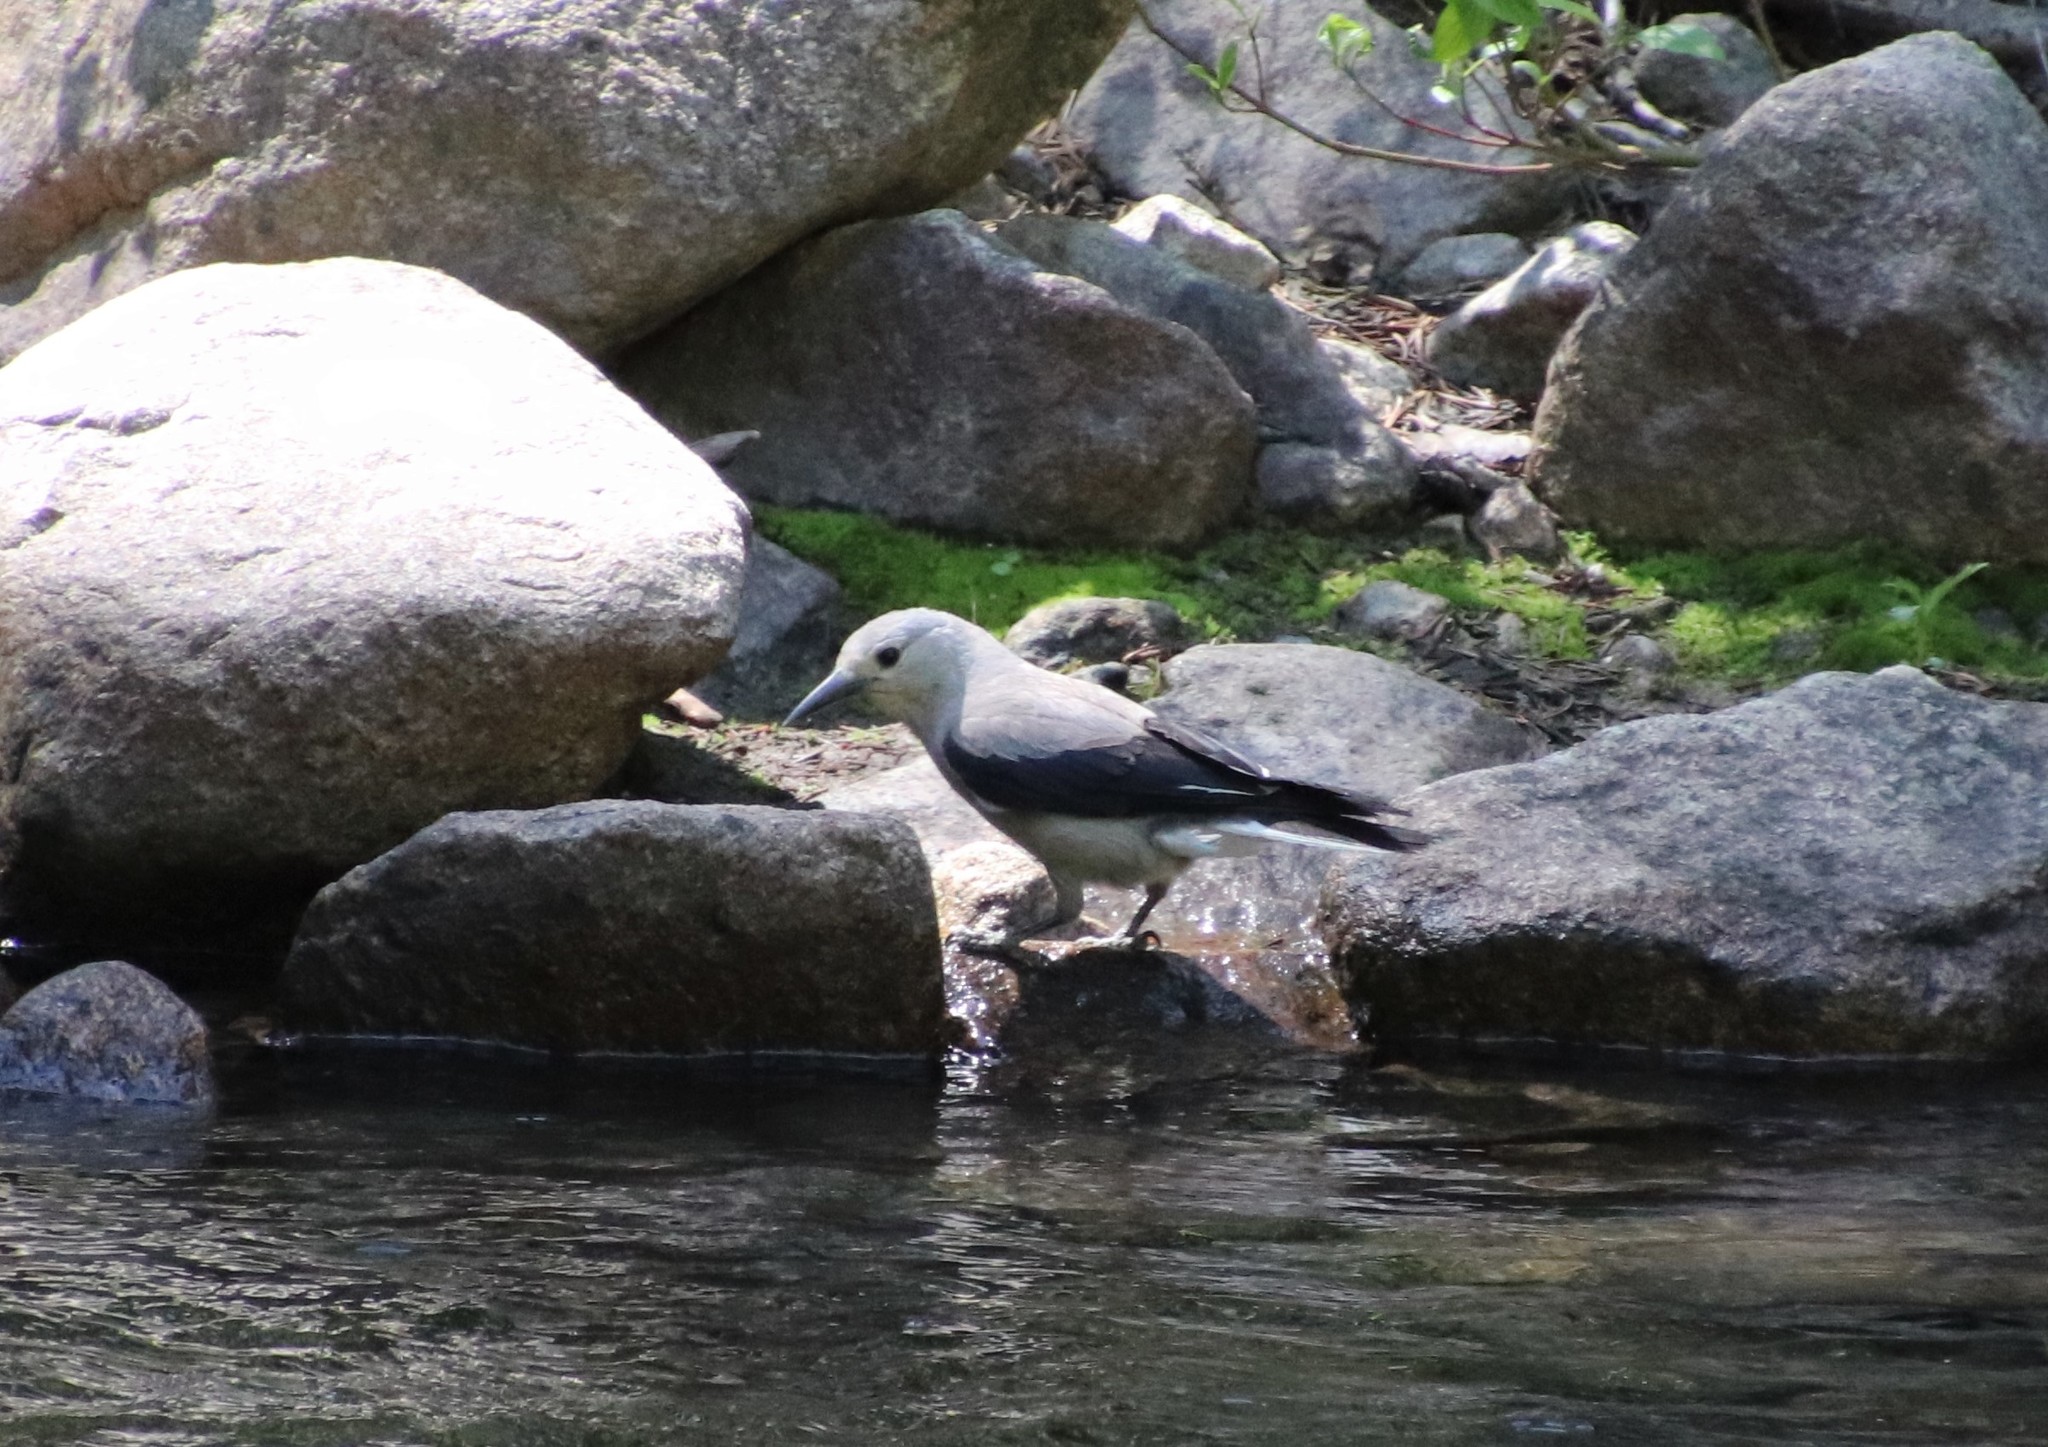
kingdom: Animalia
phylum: Chordata
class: Aves
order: Passeriformes
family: Corvidae
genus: Nucifraga
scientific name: Nucifraga columbiana
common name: Clark's nutcracker
